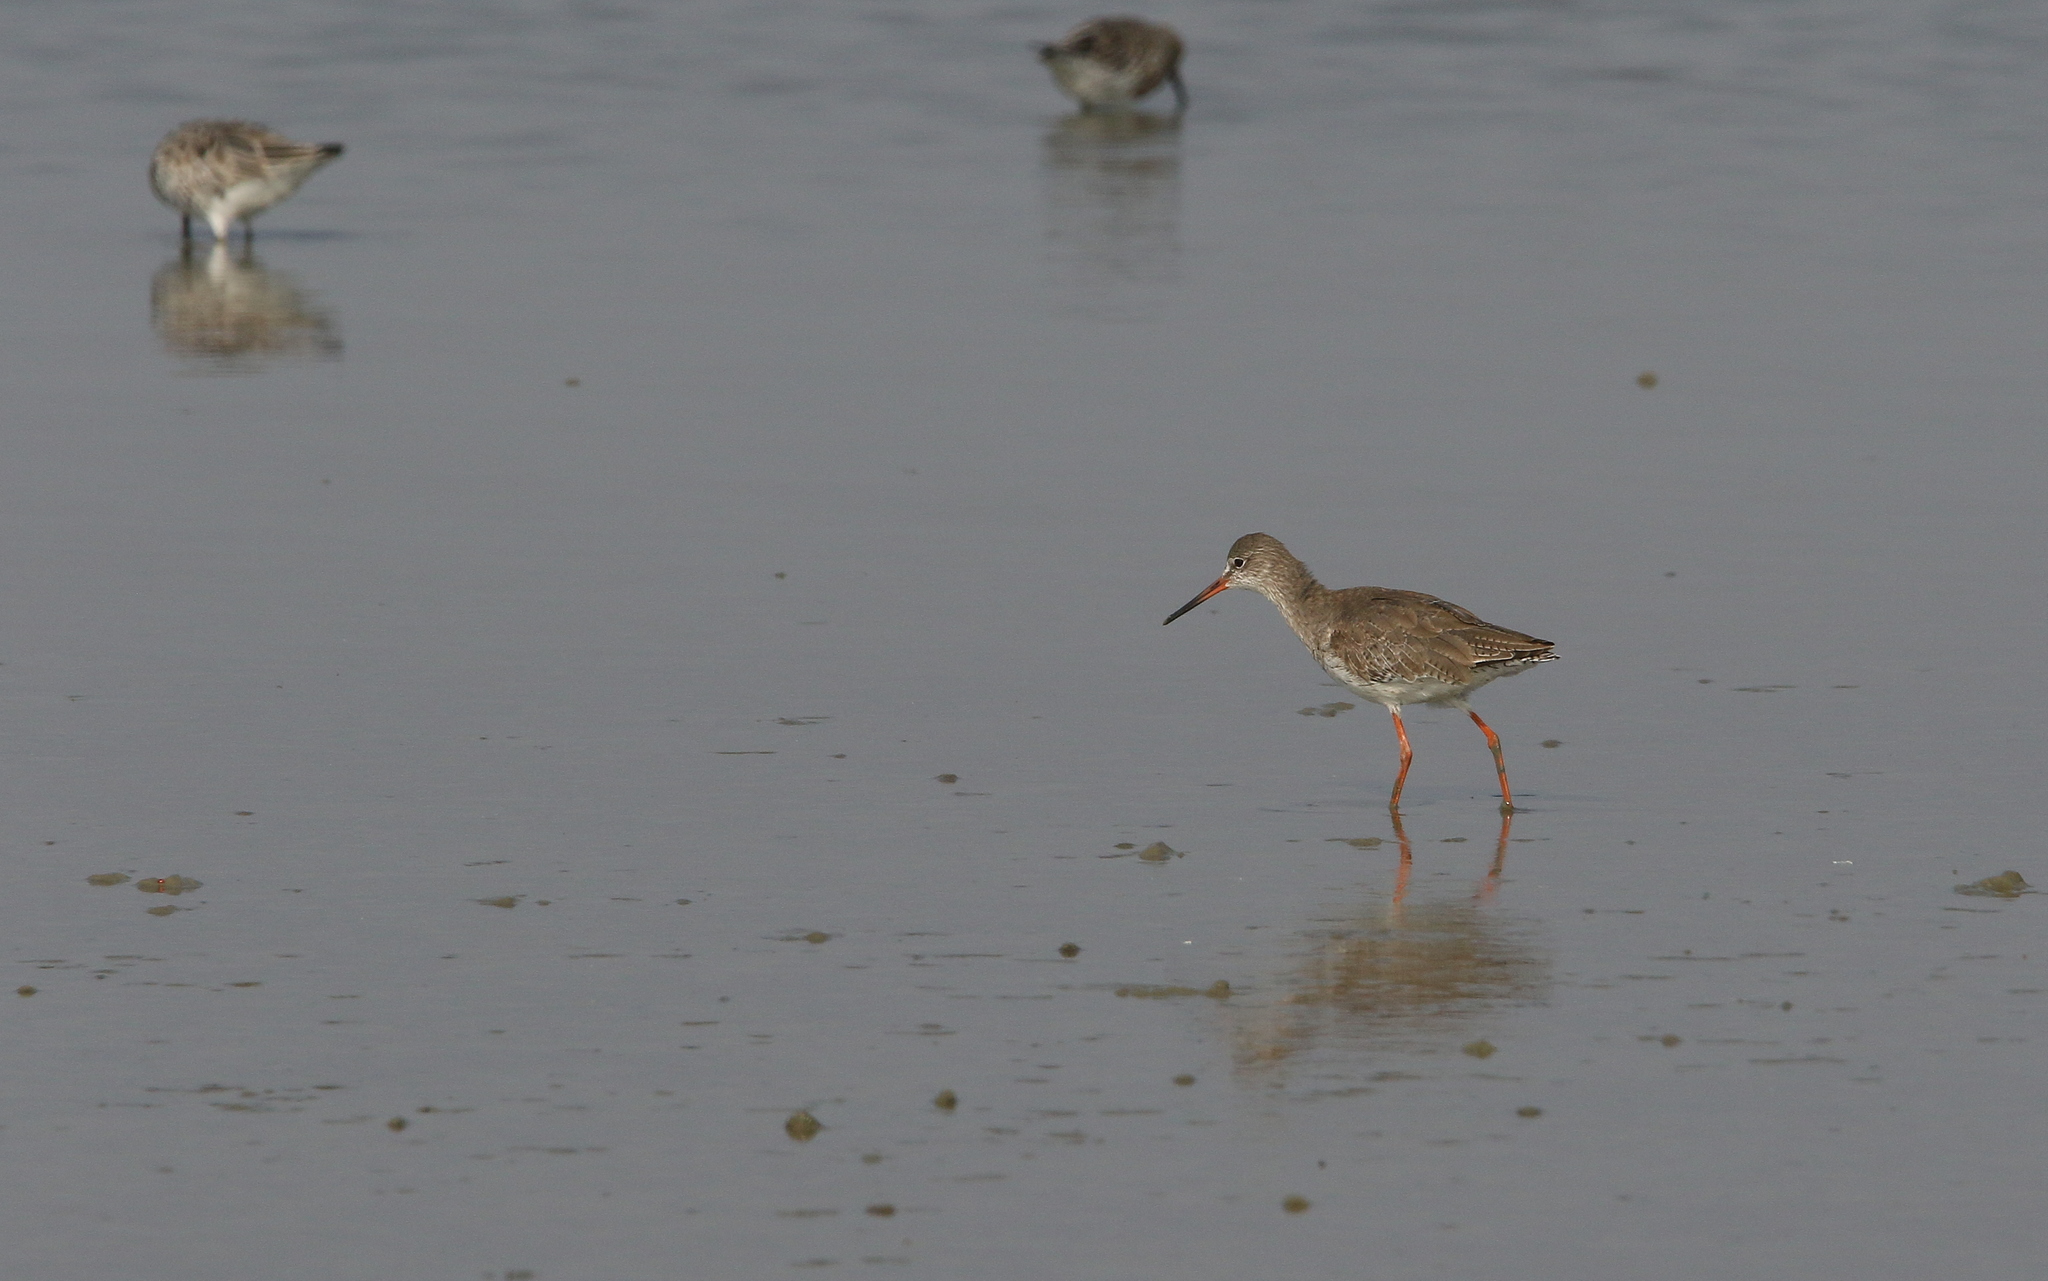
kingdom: Animalia
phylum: Chordata
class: Aves
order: Charadriiformes
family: Scolopacidae
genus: Tringa
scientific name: Tringa totanus
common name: Common redshank
